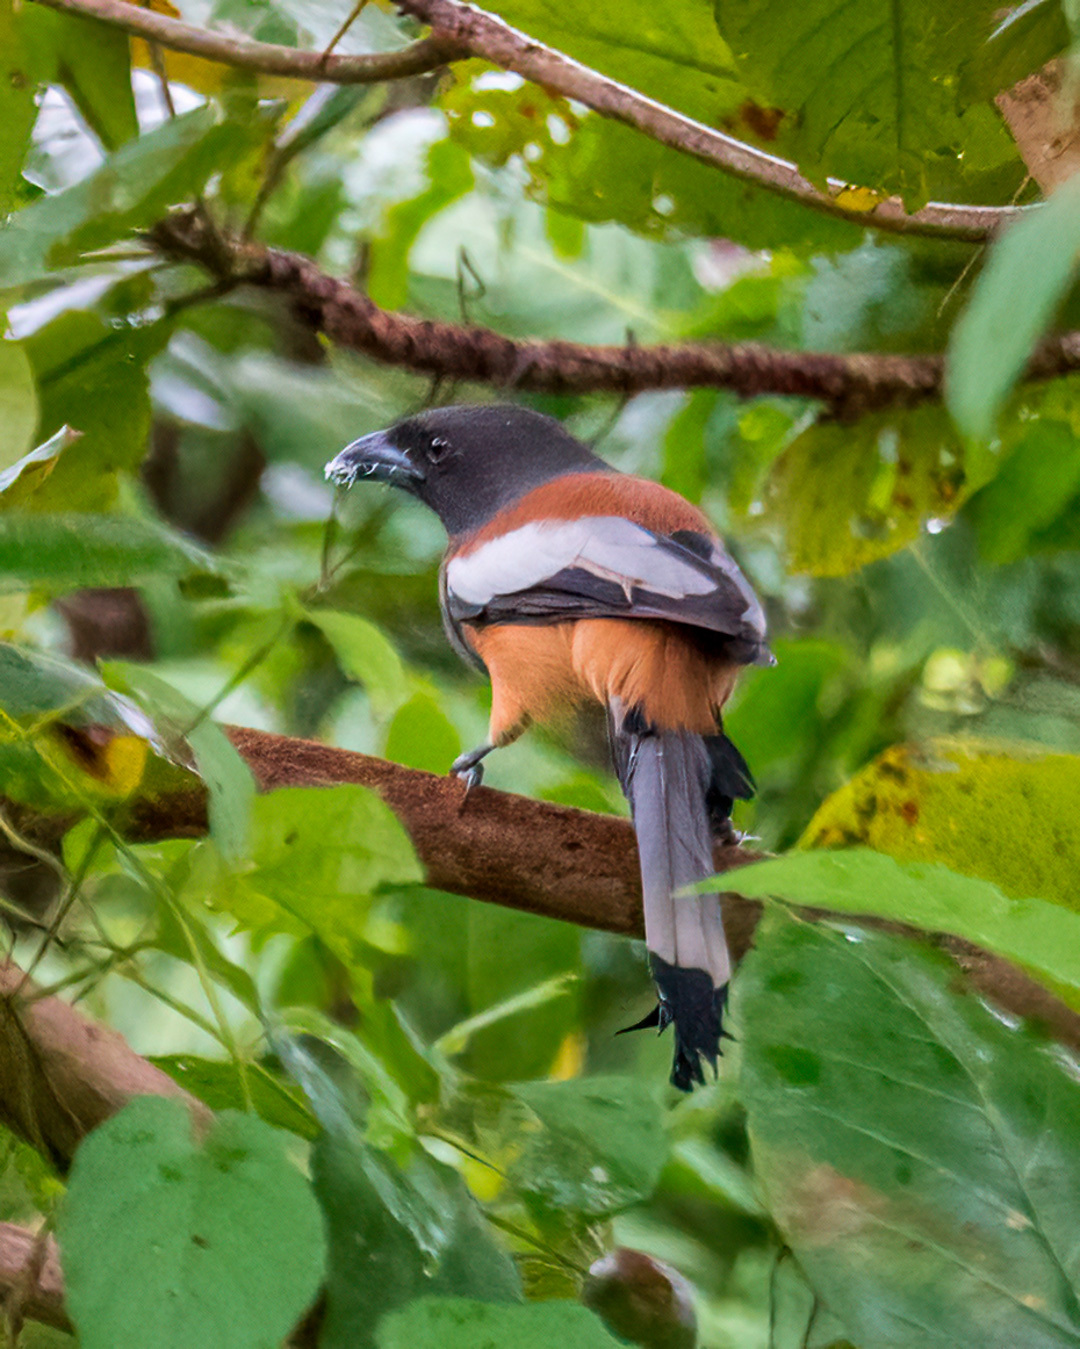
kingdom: Animalia
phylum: Chordata
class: Aves
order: Passeriformes
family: Corvidae
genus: Dendrocitta
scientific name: Dendrocitta vagabunda
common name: Rufous treepie
